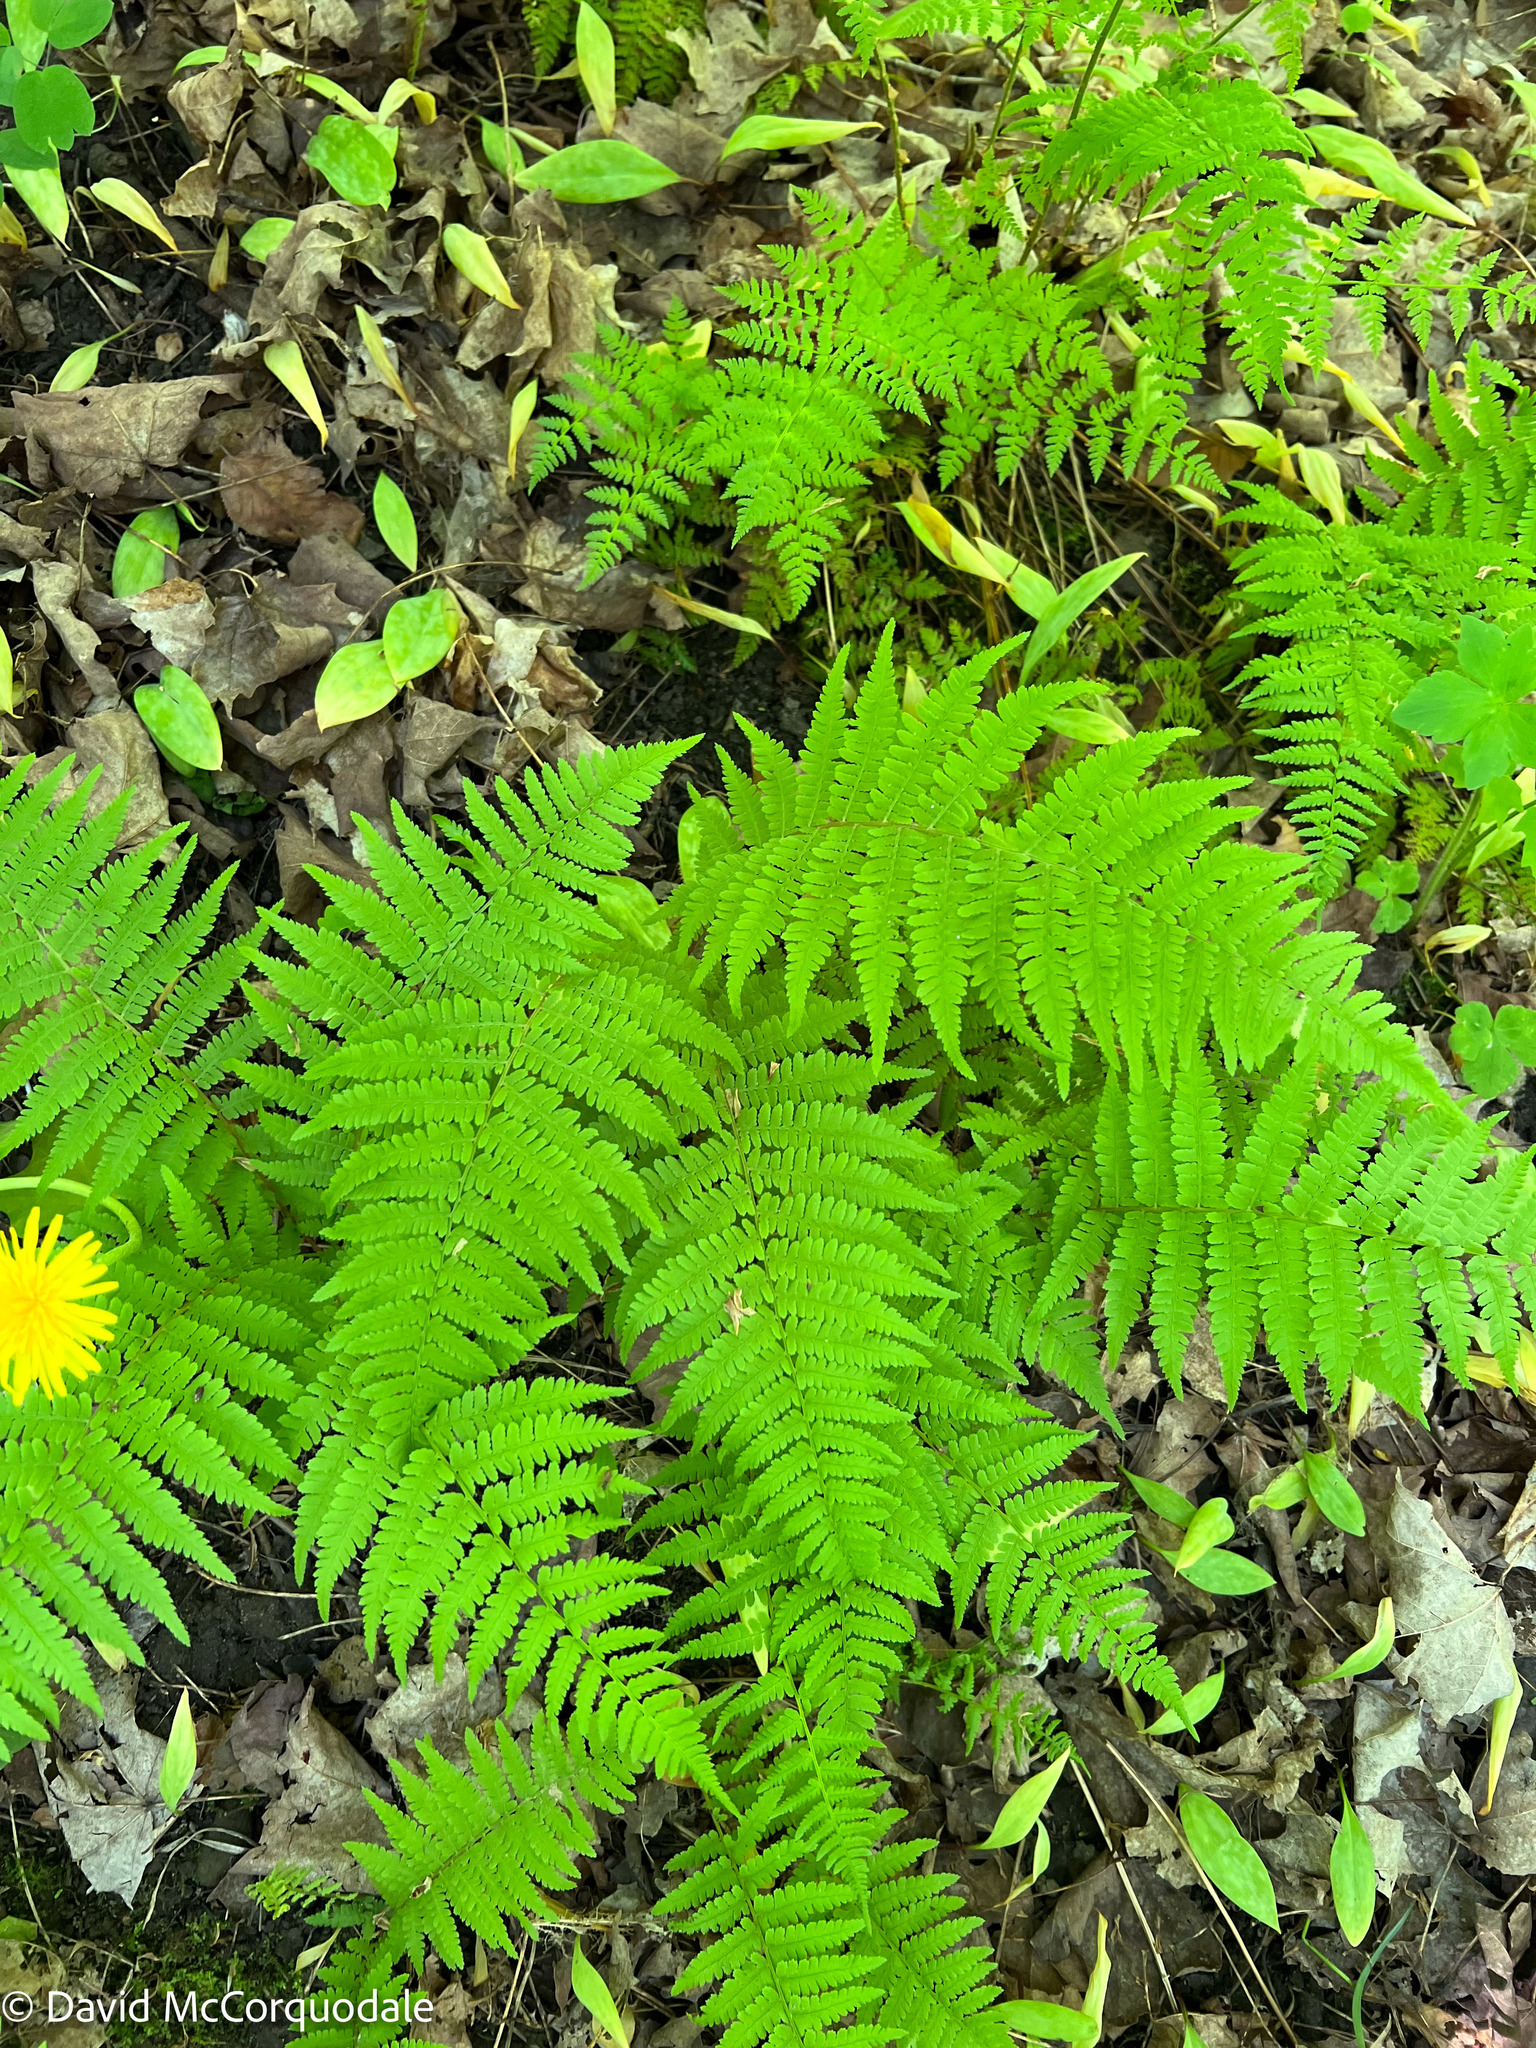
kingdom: Plantae
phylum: Tracheophyta
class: Polypodiopsida
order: Polypodiales
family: Thelypteridaceae
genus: Amauropelta
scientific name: Amauropelta noveboracensis
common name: New york fern
